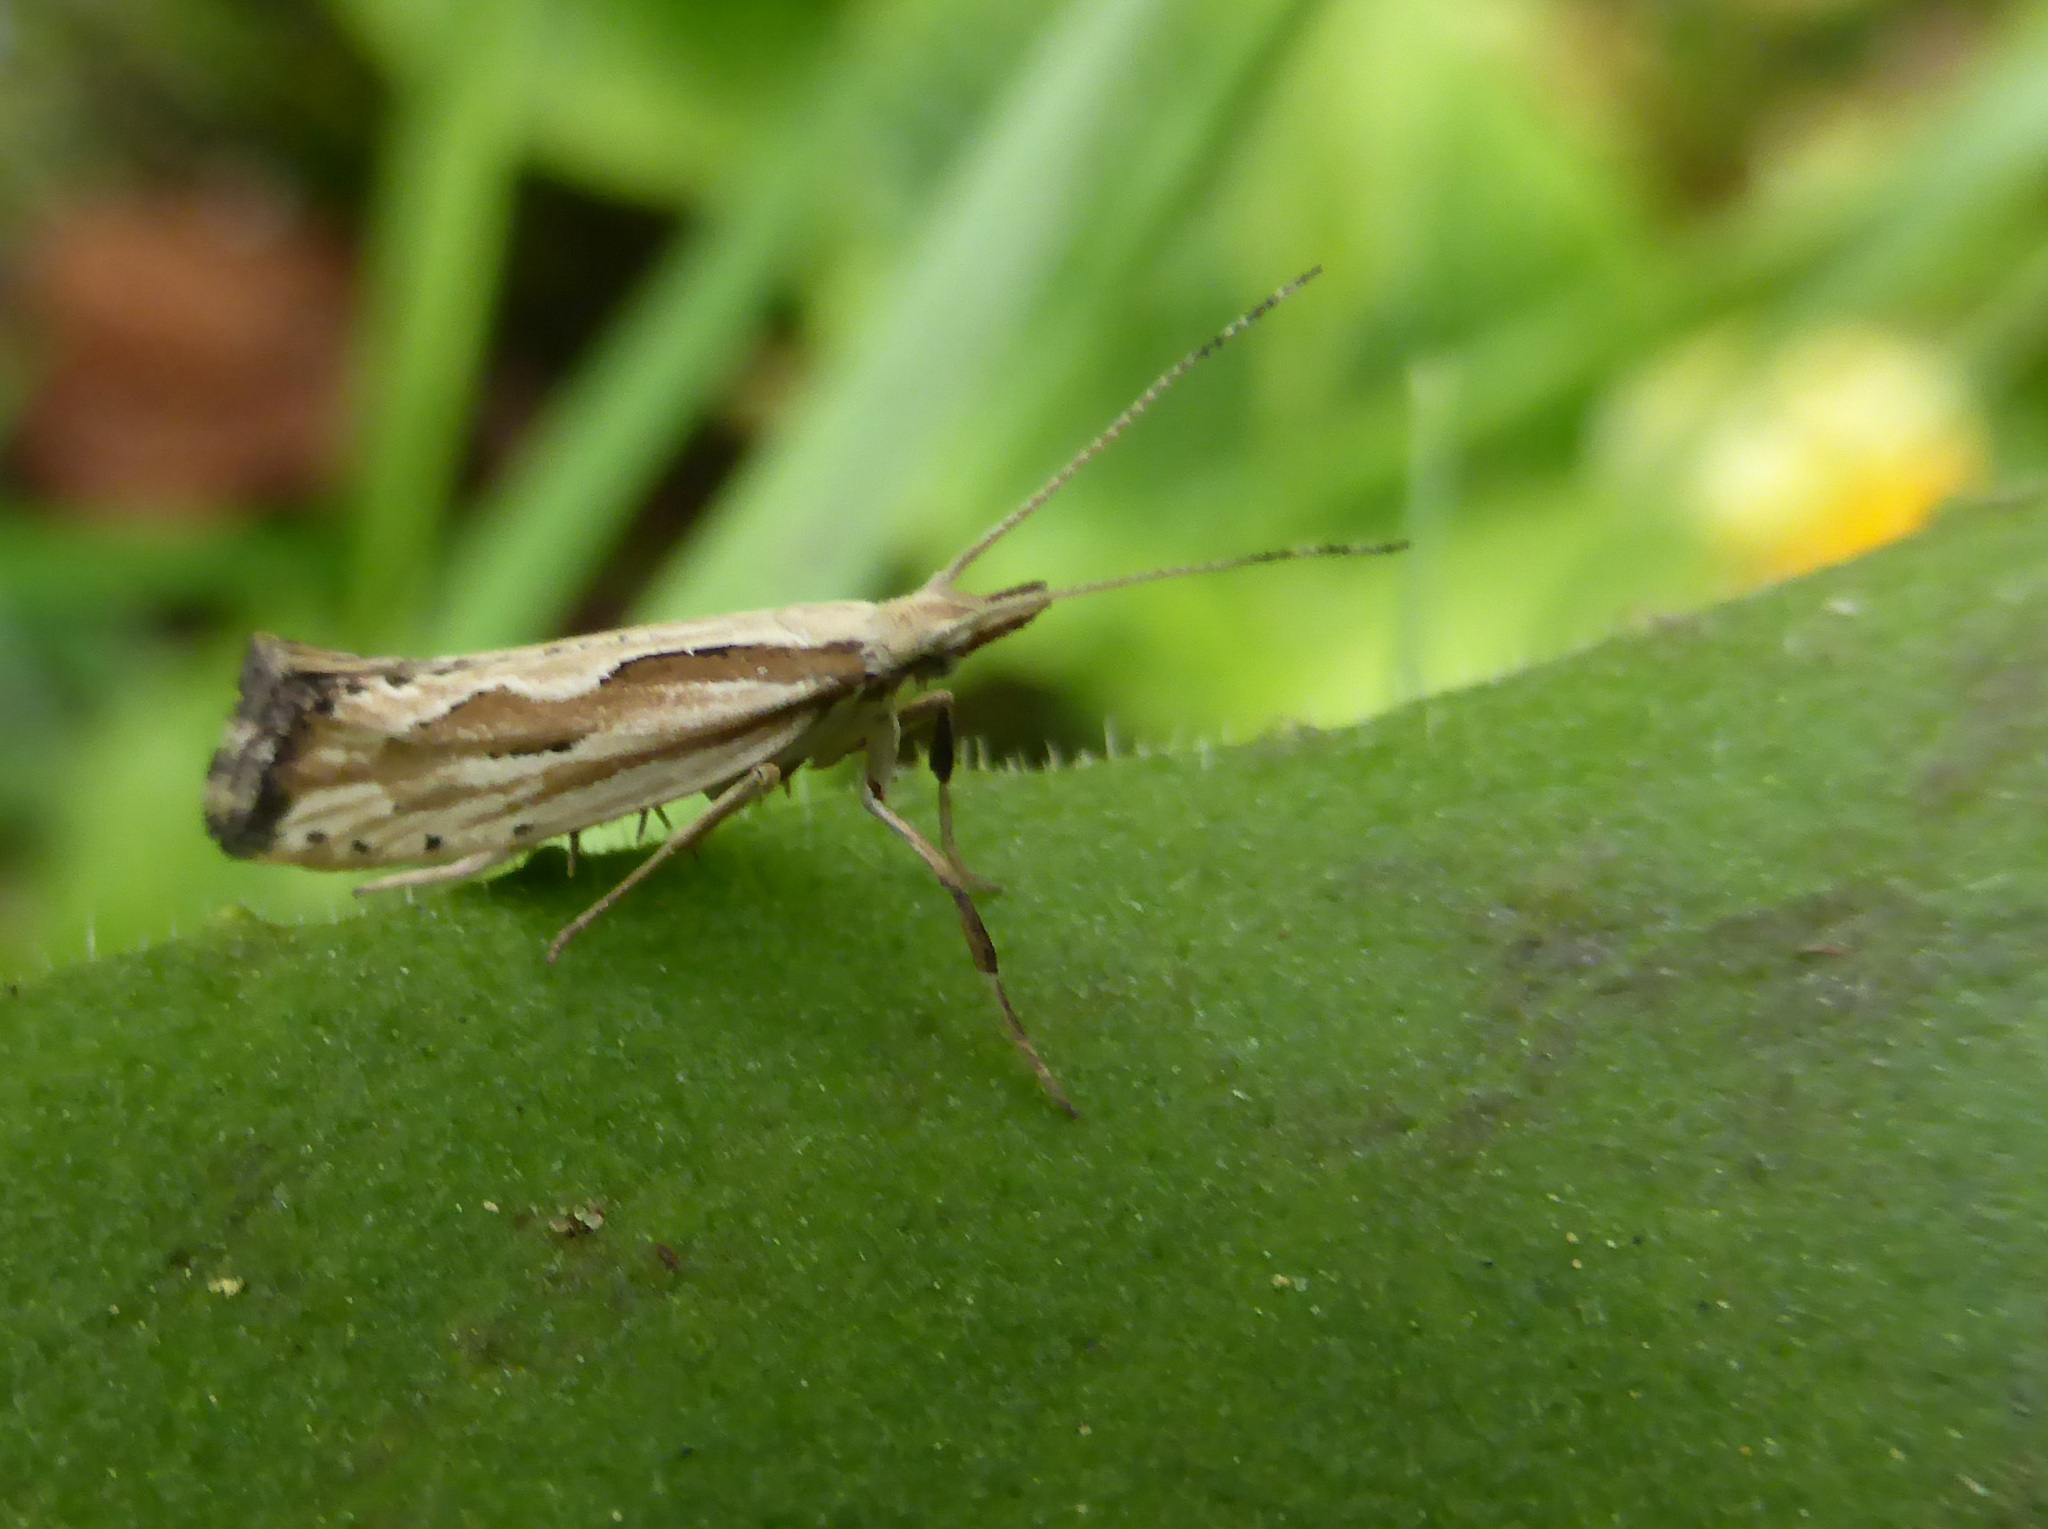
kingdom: Animalia
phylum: Arthropoda
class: Insecta
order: Lepidoptera
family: Plutellidae
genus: Plutella
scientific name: Plutella porrectella
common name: Dame's rocket moth
